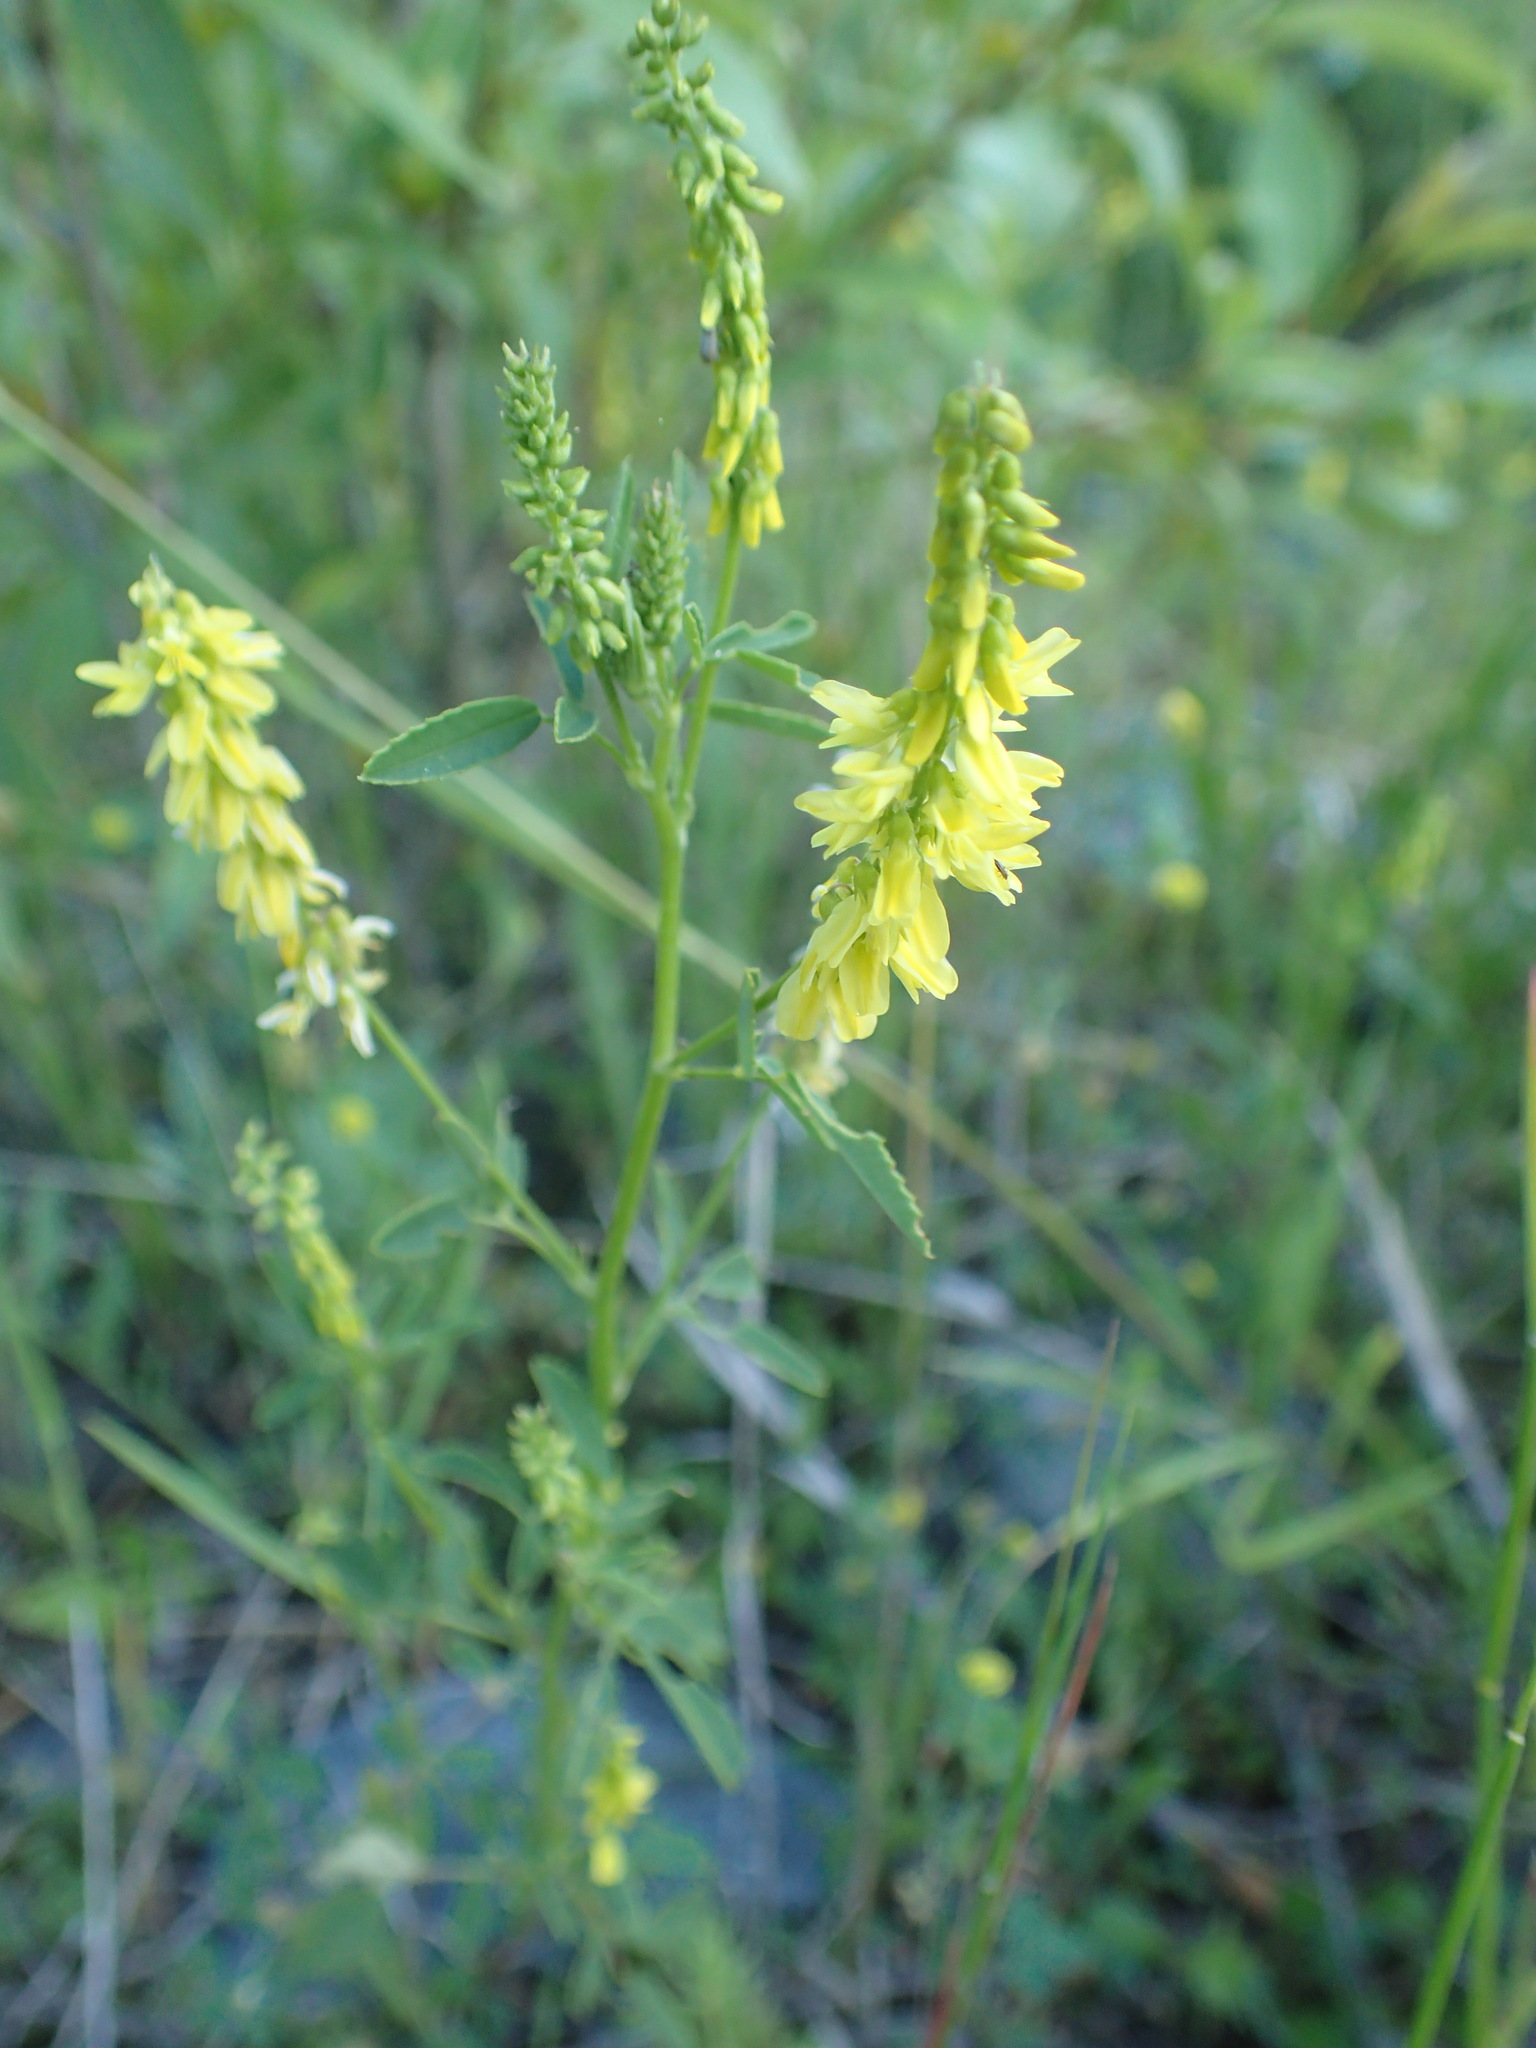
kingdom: Plantae
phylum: Tracheophyta
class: Magnoliopsida
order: Fabales
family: Fabaceae
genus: Melilotus
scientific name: Melilotus officinalis
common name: Sweetclover
